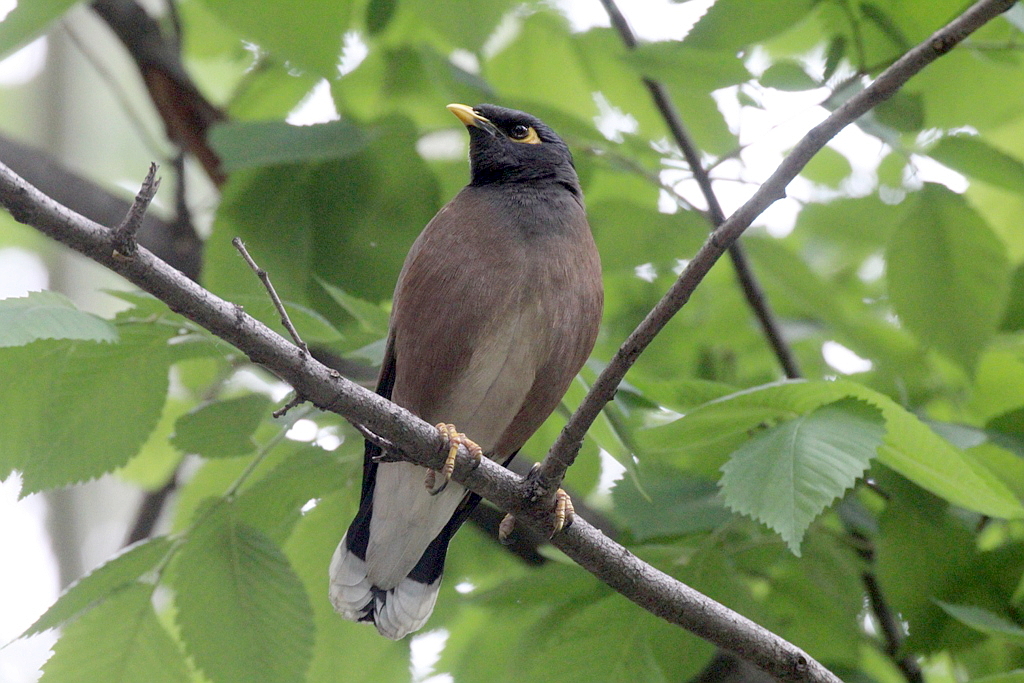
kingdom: Animalia
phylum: Chordata
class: Aves
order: Passeriformes
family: Sturnidae
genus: Acridotheres
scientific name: Acridotheres tristis
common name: Common myna
